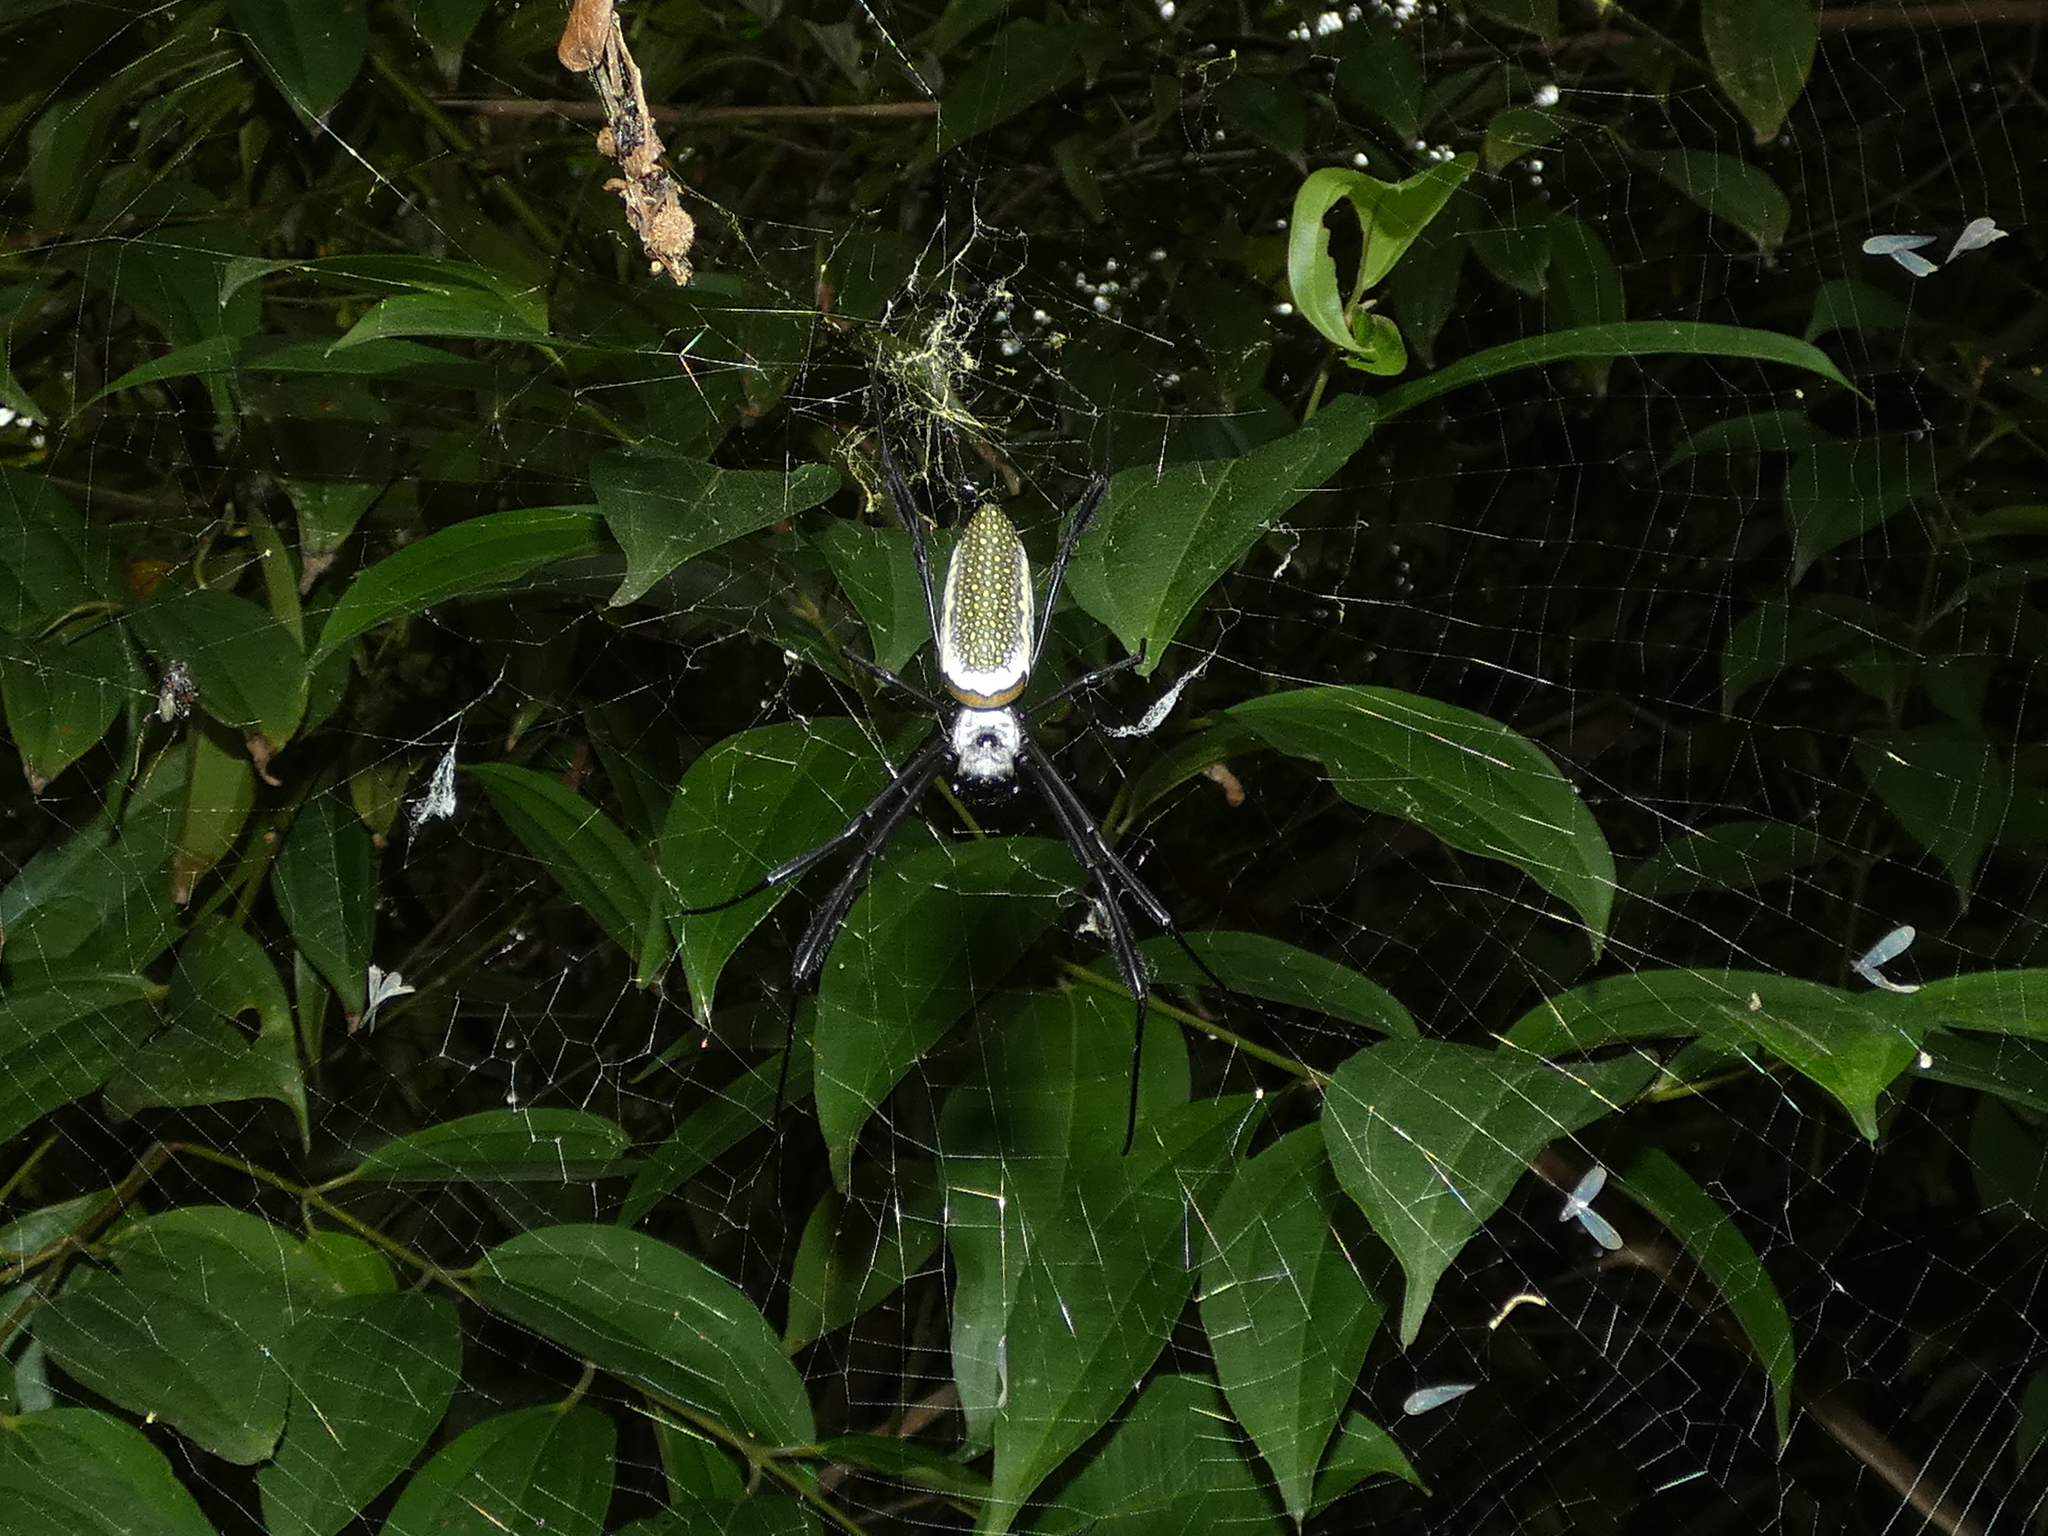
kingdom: Animalia
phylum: Arthropoda
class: Arachnida
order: Araneae
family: Araneidae
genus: Trichonephila
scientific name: Trichonephila clavipes
